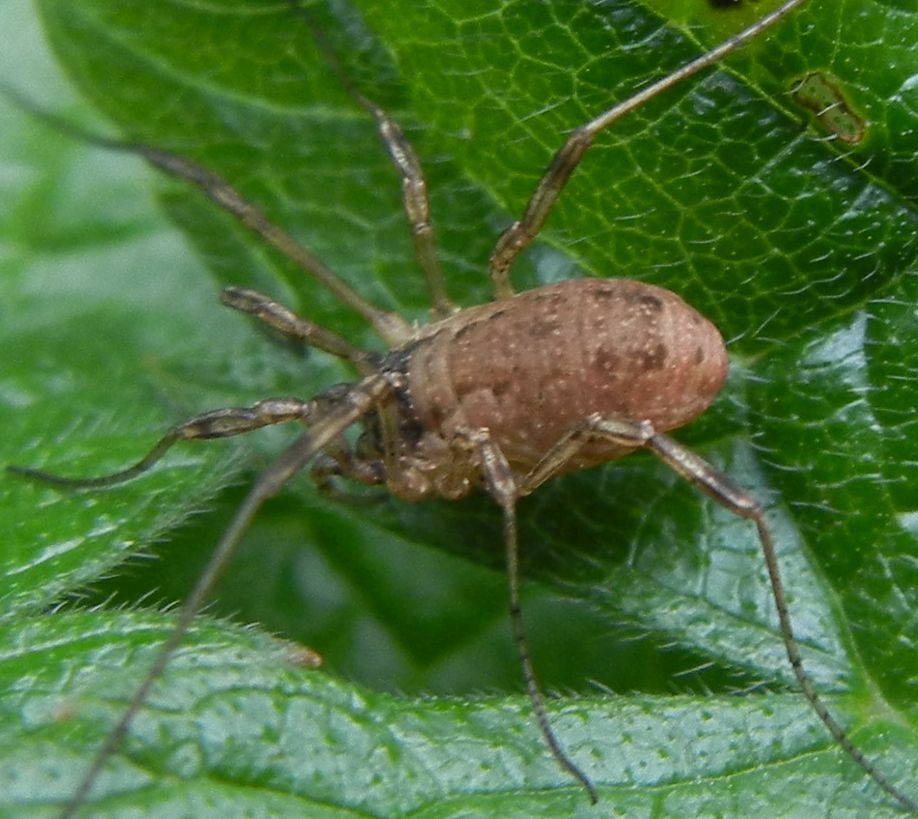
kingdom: Animalia
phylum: Arthropoda
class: Arachnida
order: Opiliones
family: Phalangiidae
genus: Oligolophus
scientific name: Oligolophus tridens
